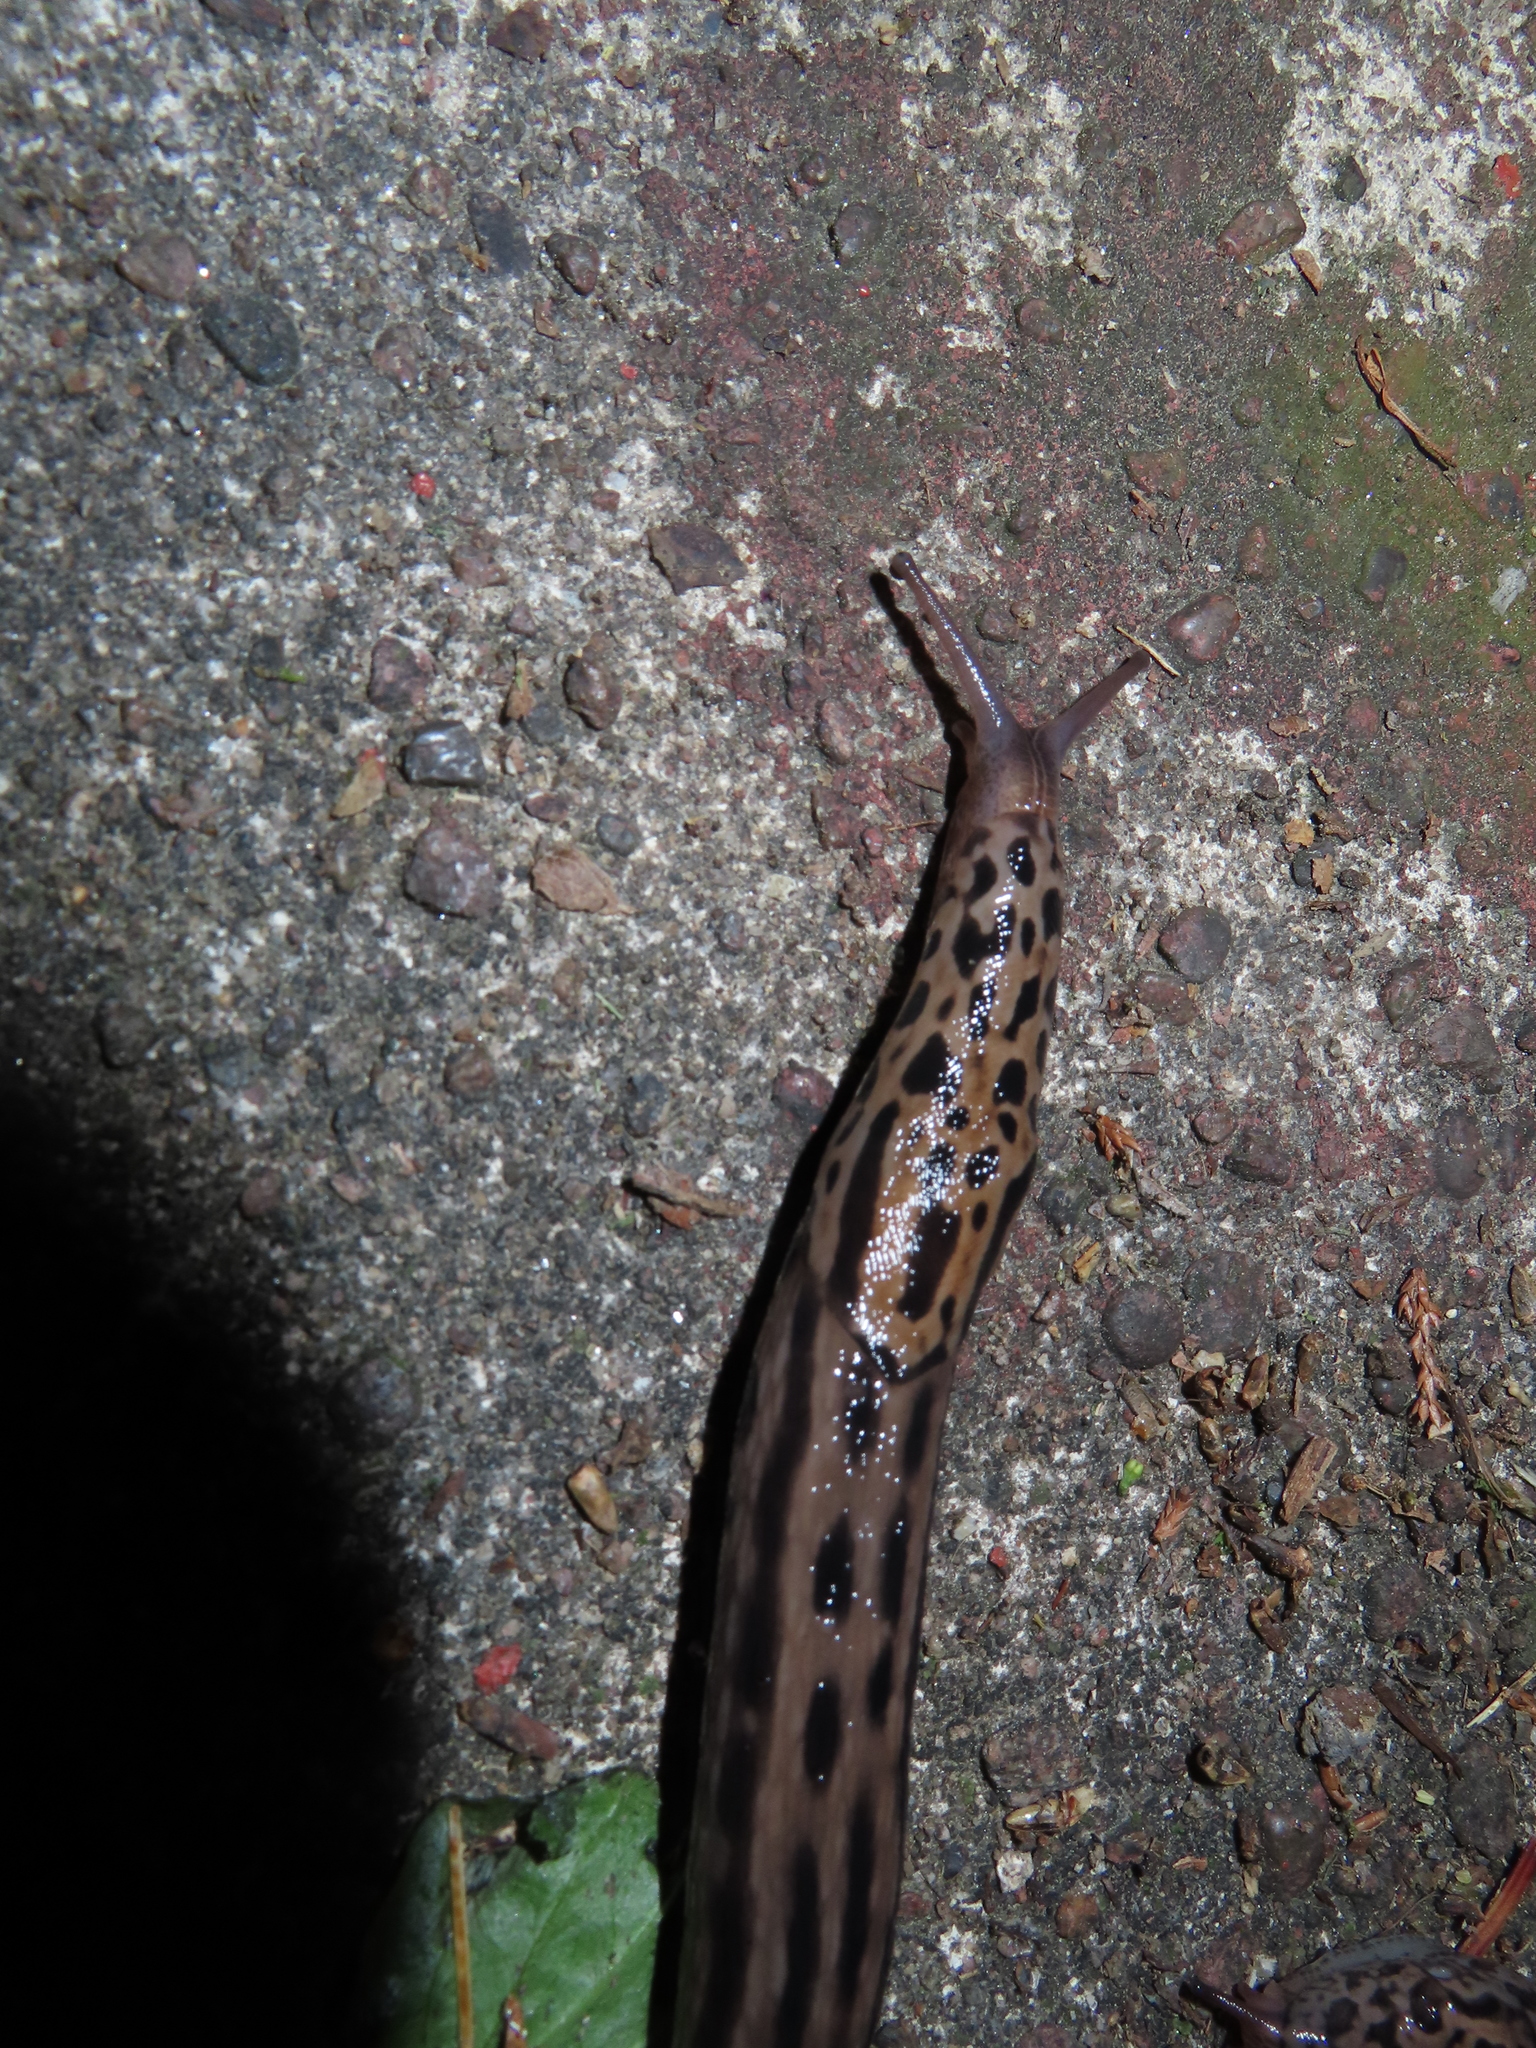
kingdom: Animalia
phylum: Mollusca
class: Gastropoda
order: Stylommatophora
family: Limacidae
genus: Limax
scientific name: Limax maximus
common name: Great grey slug
